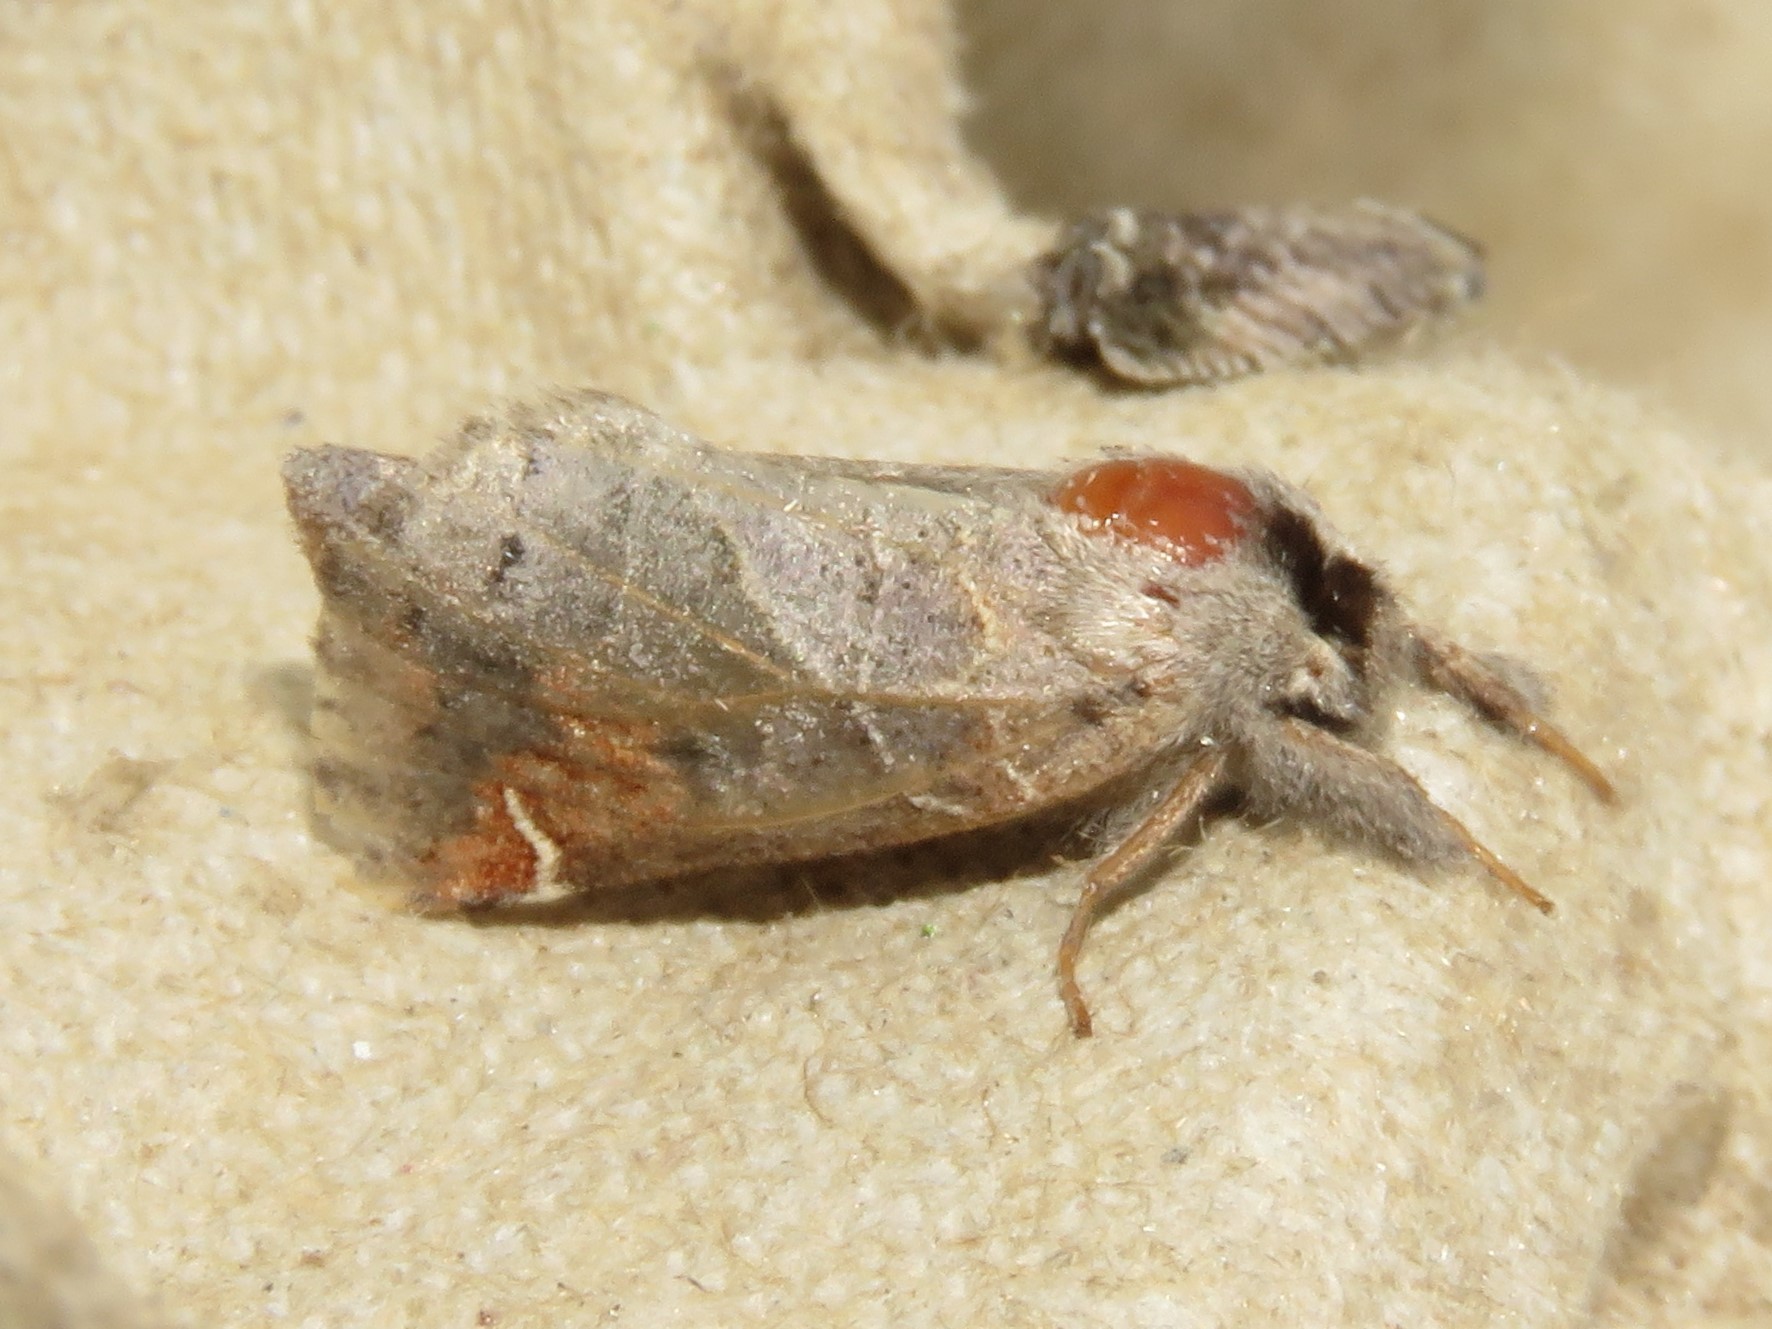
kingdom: Animalia
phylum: Arthropoda
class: Insecta
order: Lepidoptera
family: Notodontidae
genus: Clostera
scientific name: Clostera apicalis
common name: Apical prominent
